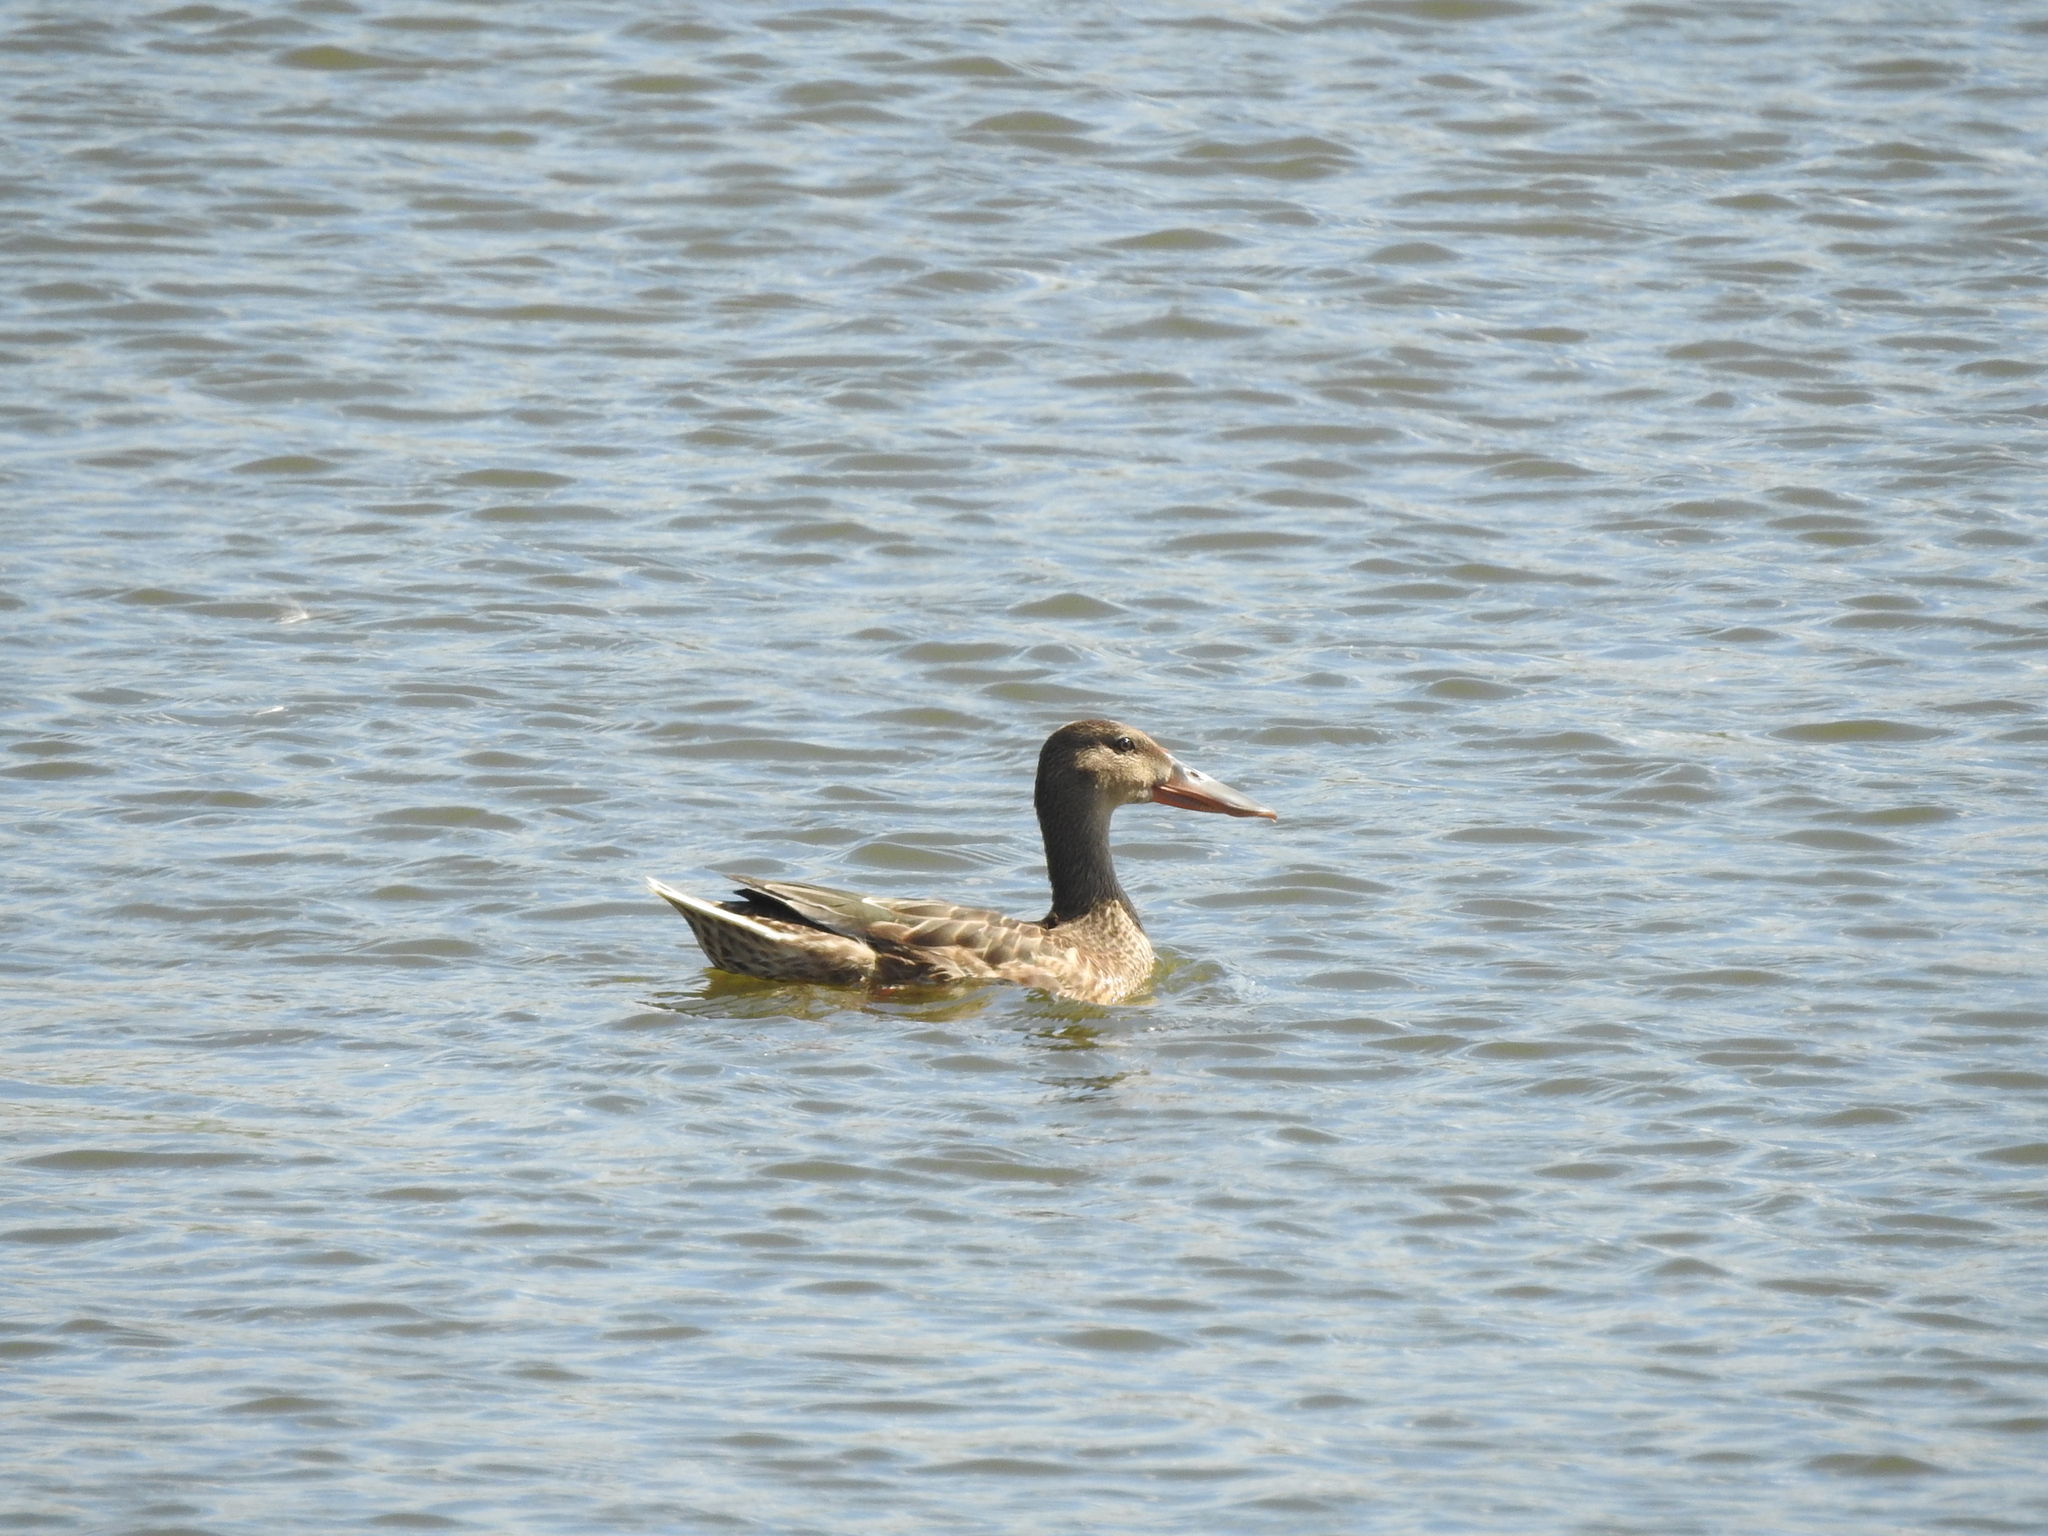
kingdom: Animalia
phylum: Chordata
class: Aves
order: Anseriformes
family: Anatidae
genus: Spatula
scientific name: Spatula clypeata
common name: Northern shoveler
